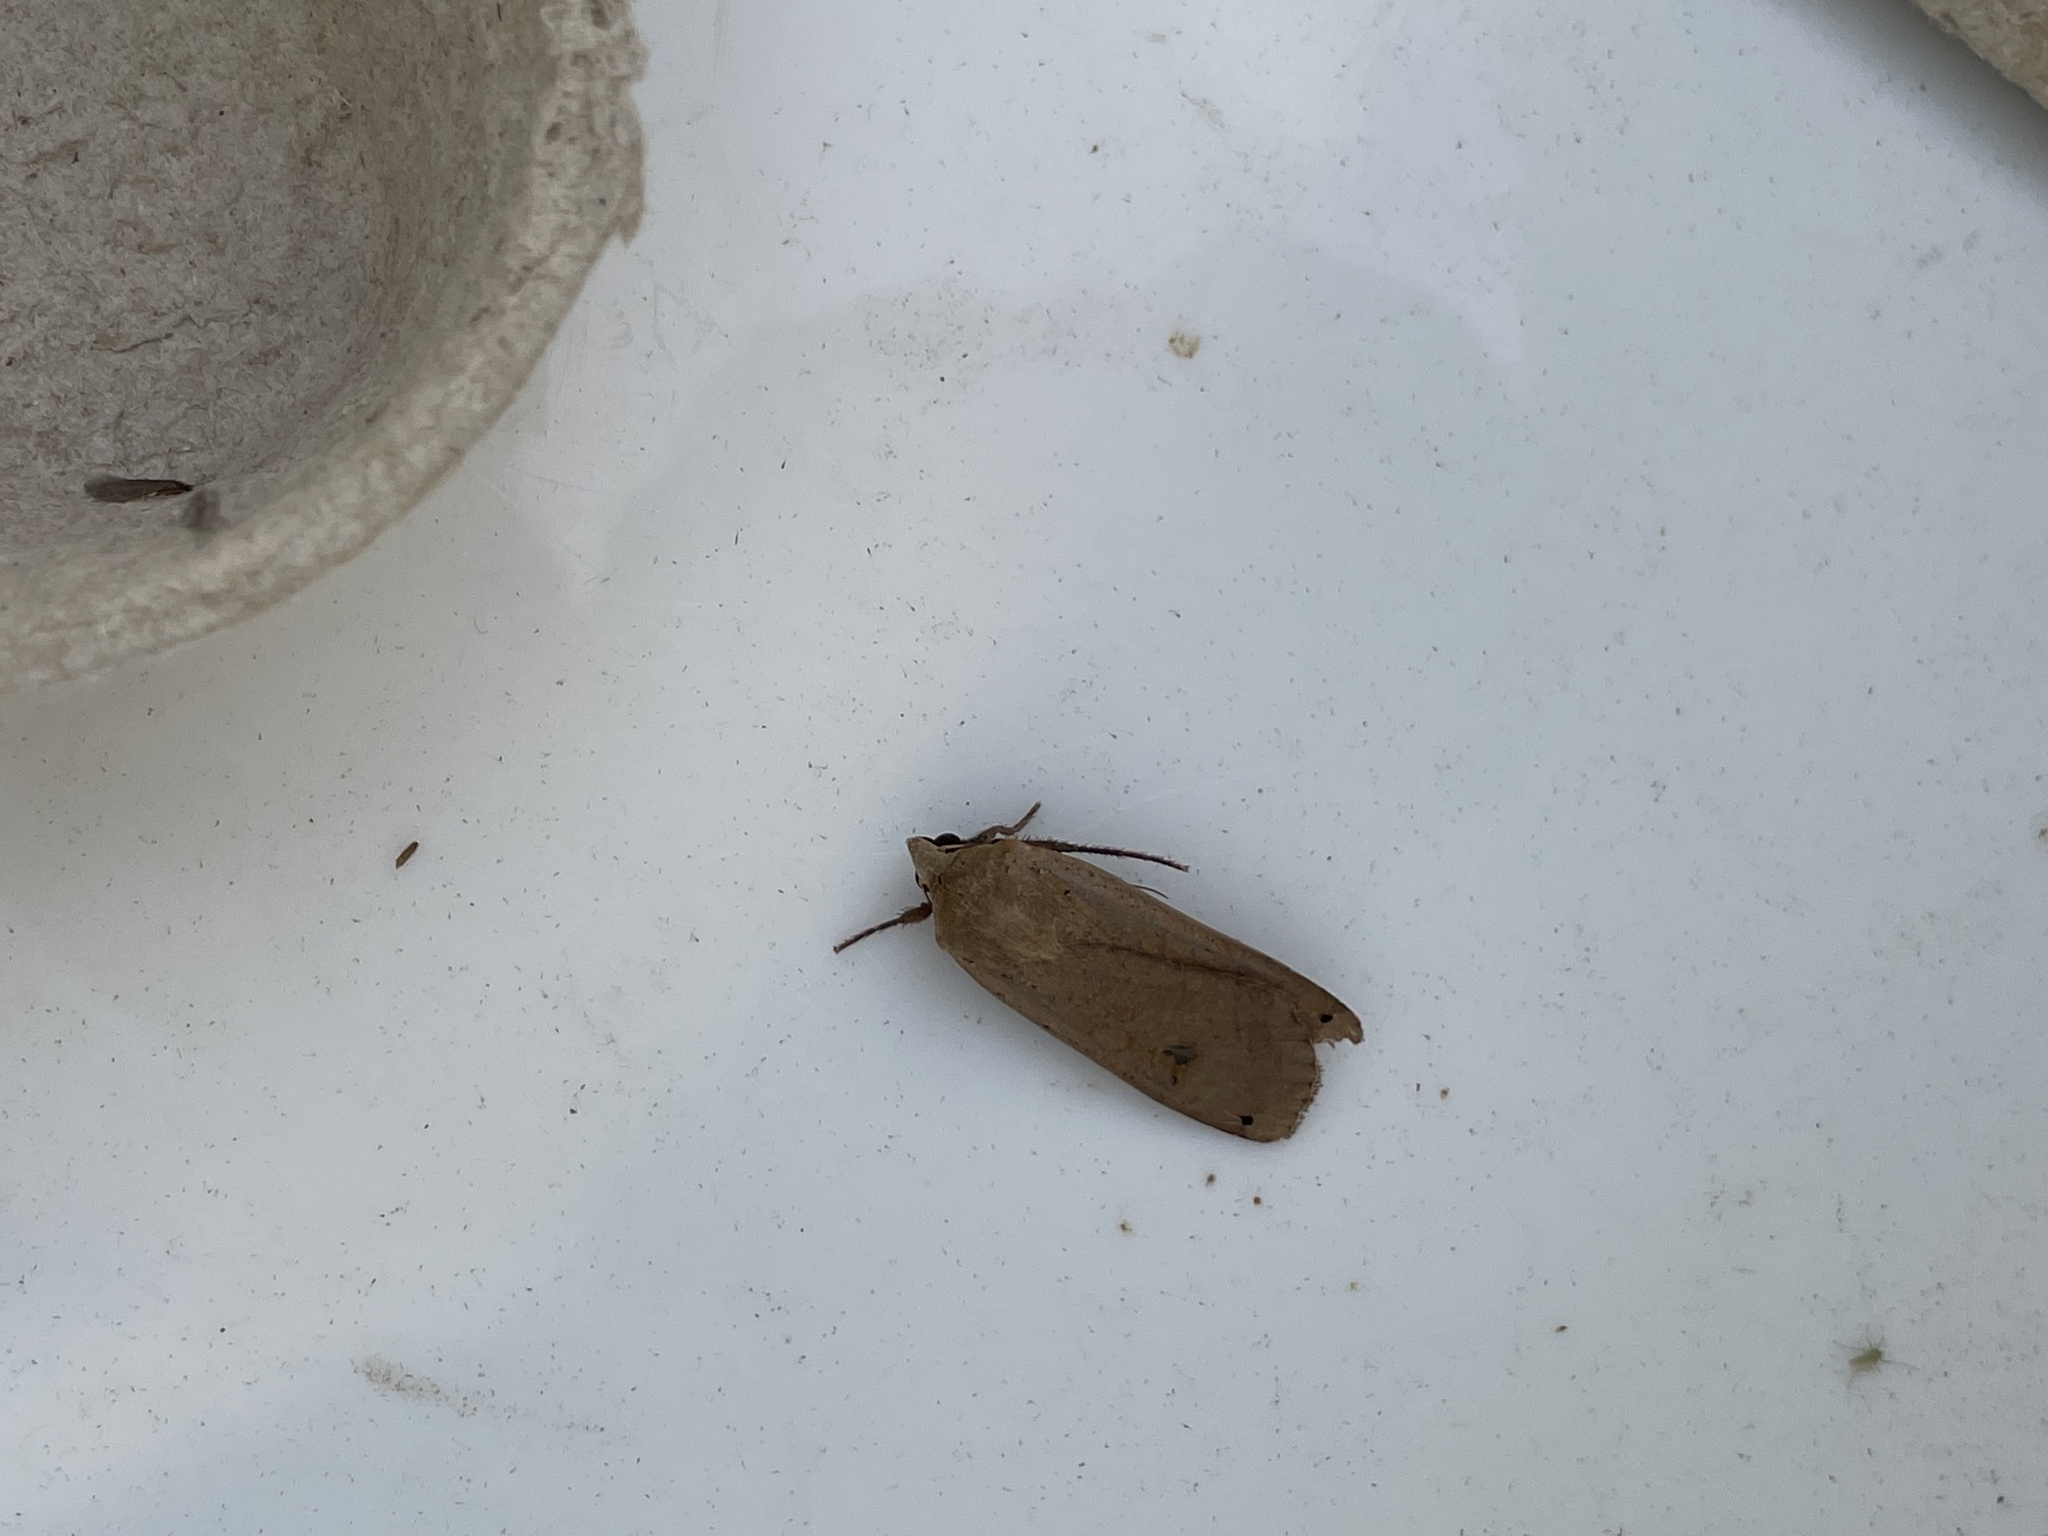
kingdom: Animalia
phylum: Arthropoda
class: Insecta
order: Lepidoptera
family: Noctuidae
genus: Noctua
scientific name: Noctua pronuba
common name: Large yellow underwing
